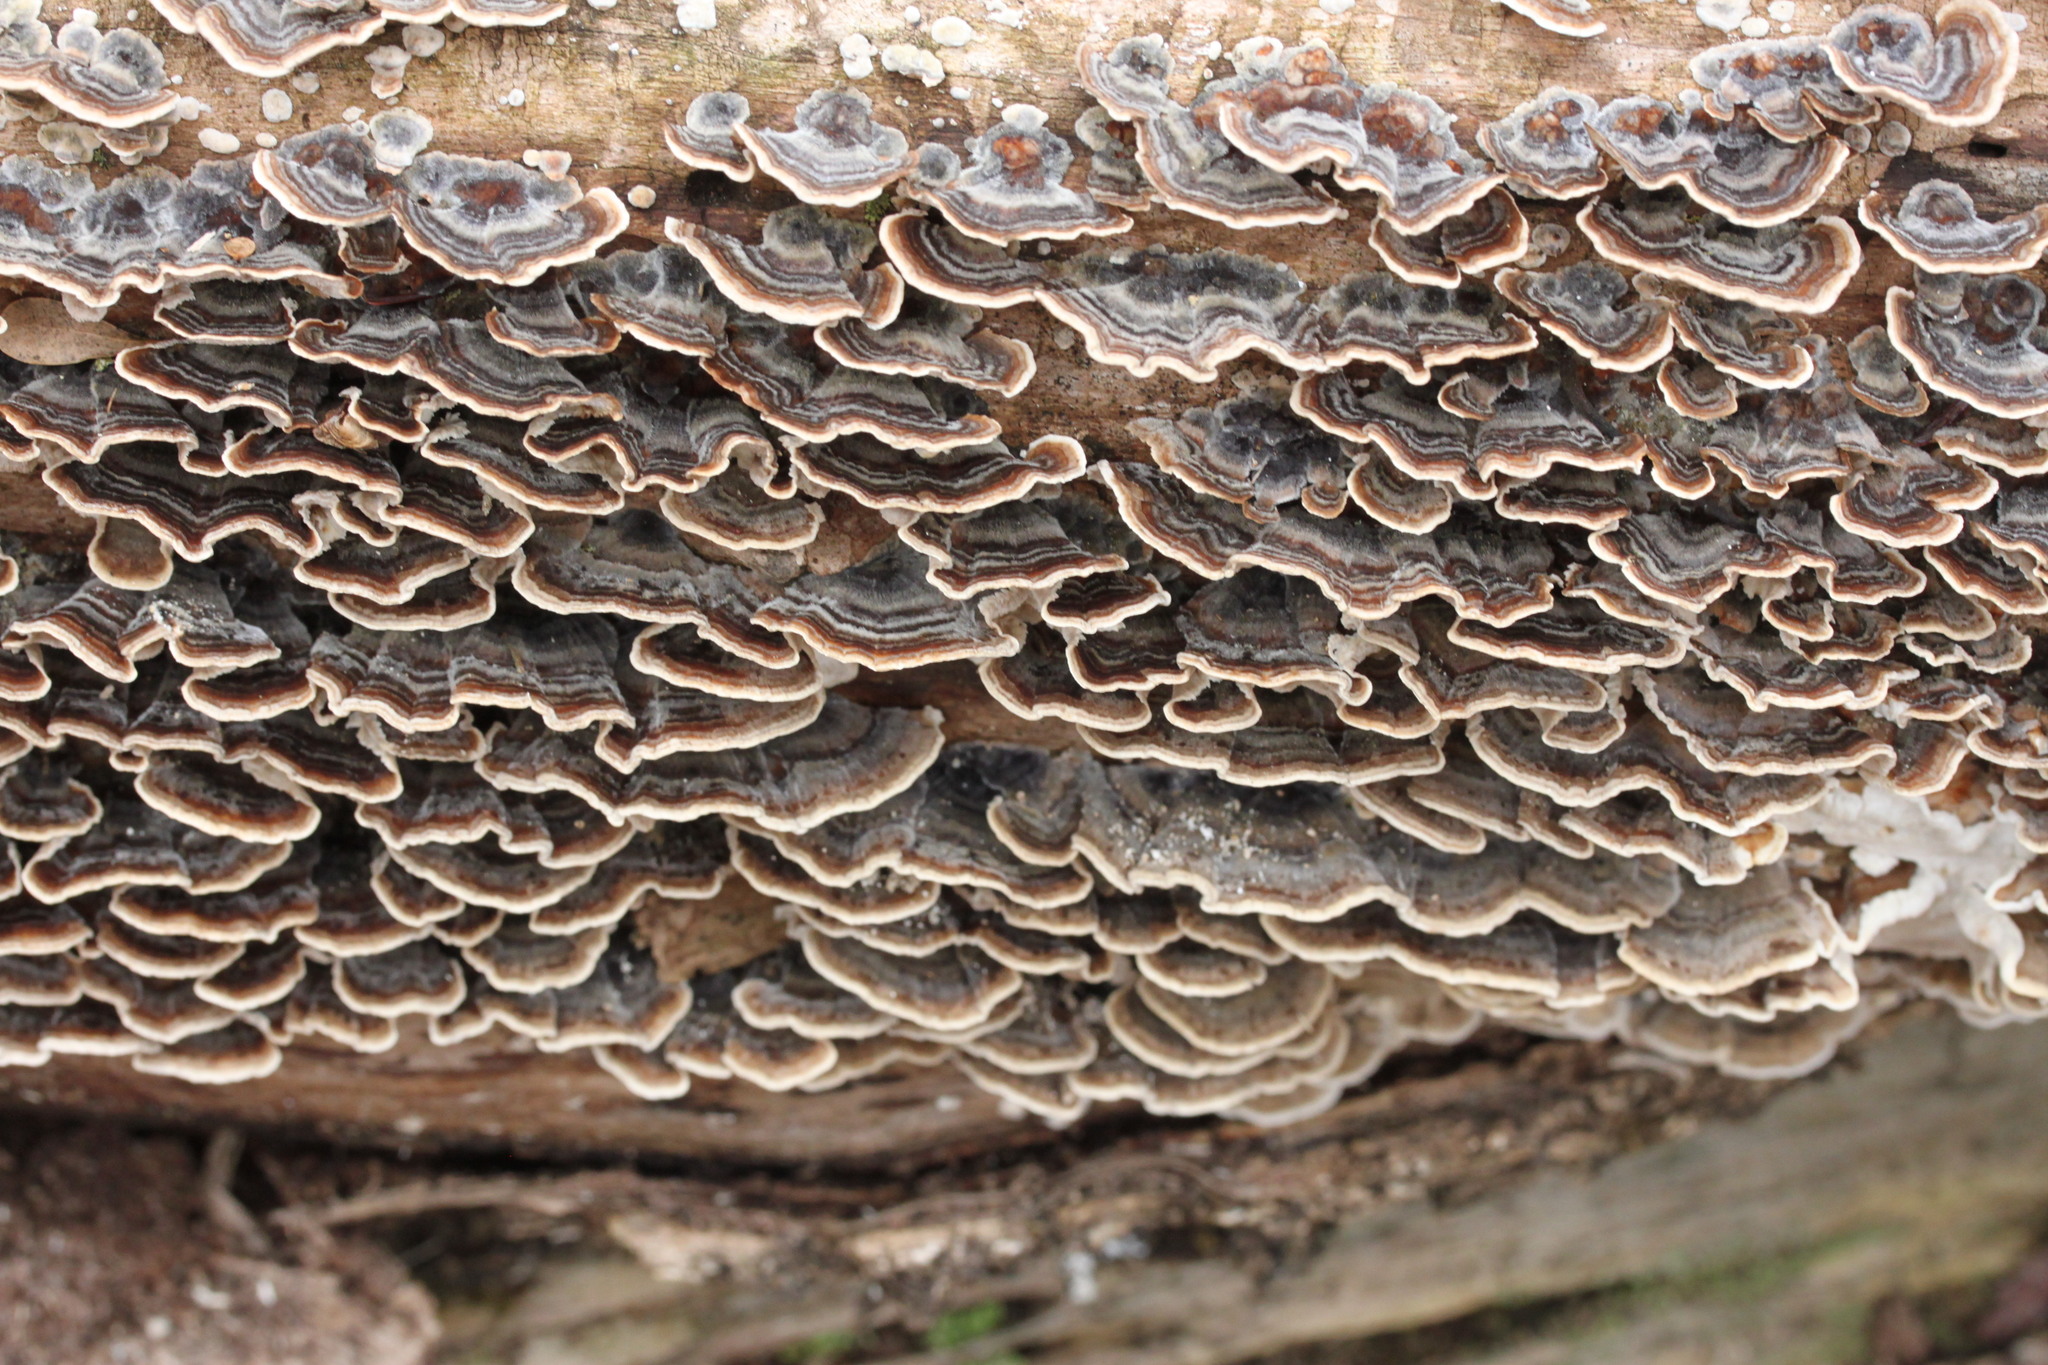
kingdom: Fungi
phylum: Basidiomycota
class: Agaricomycetes
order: Polyporales
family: Polyporaceae
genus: Trametes
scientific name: Trametes versicolor
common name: Turkeytail
